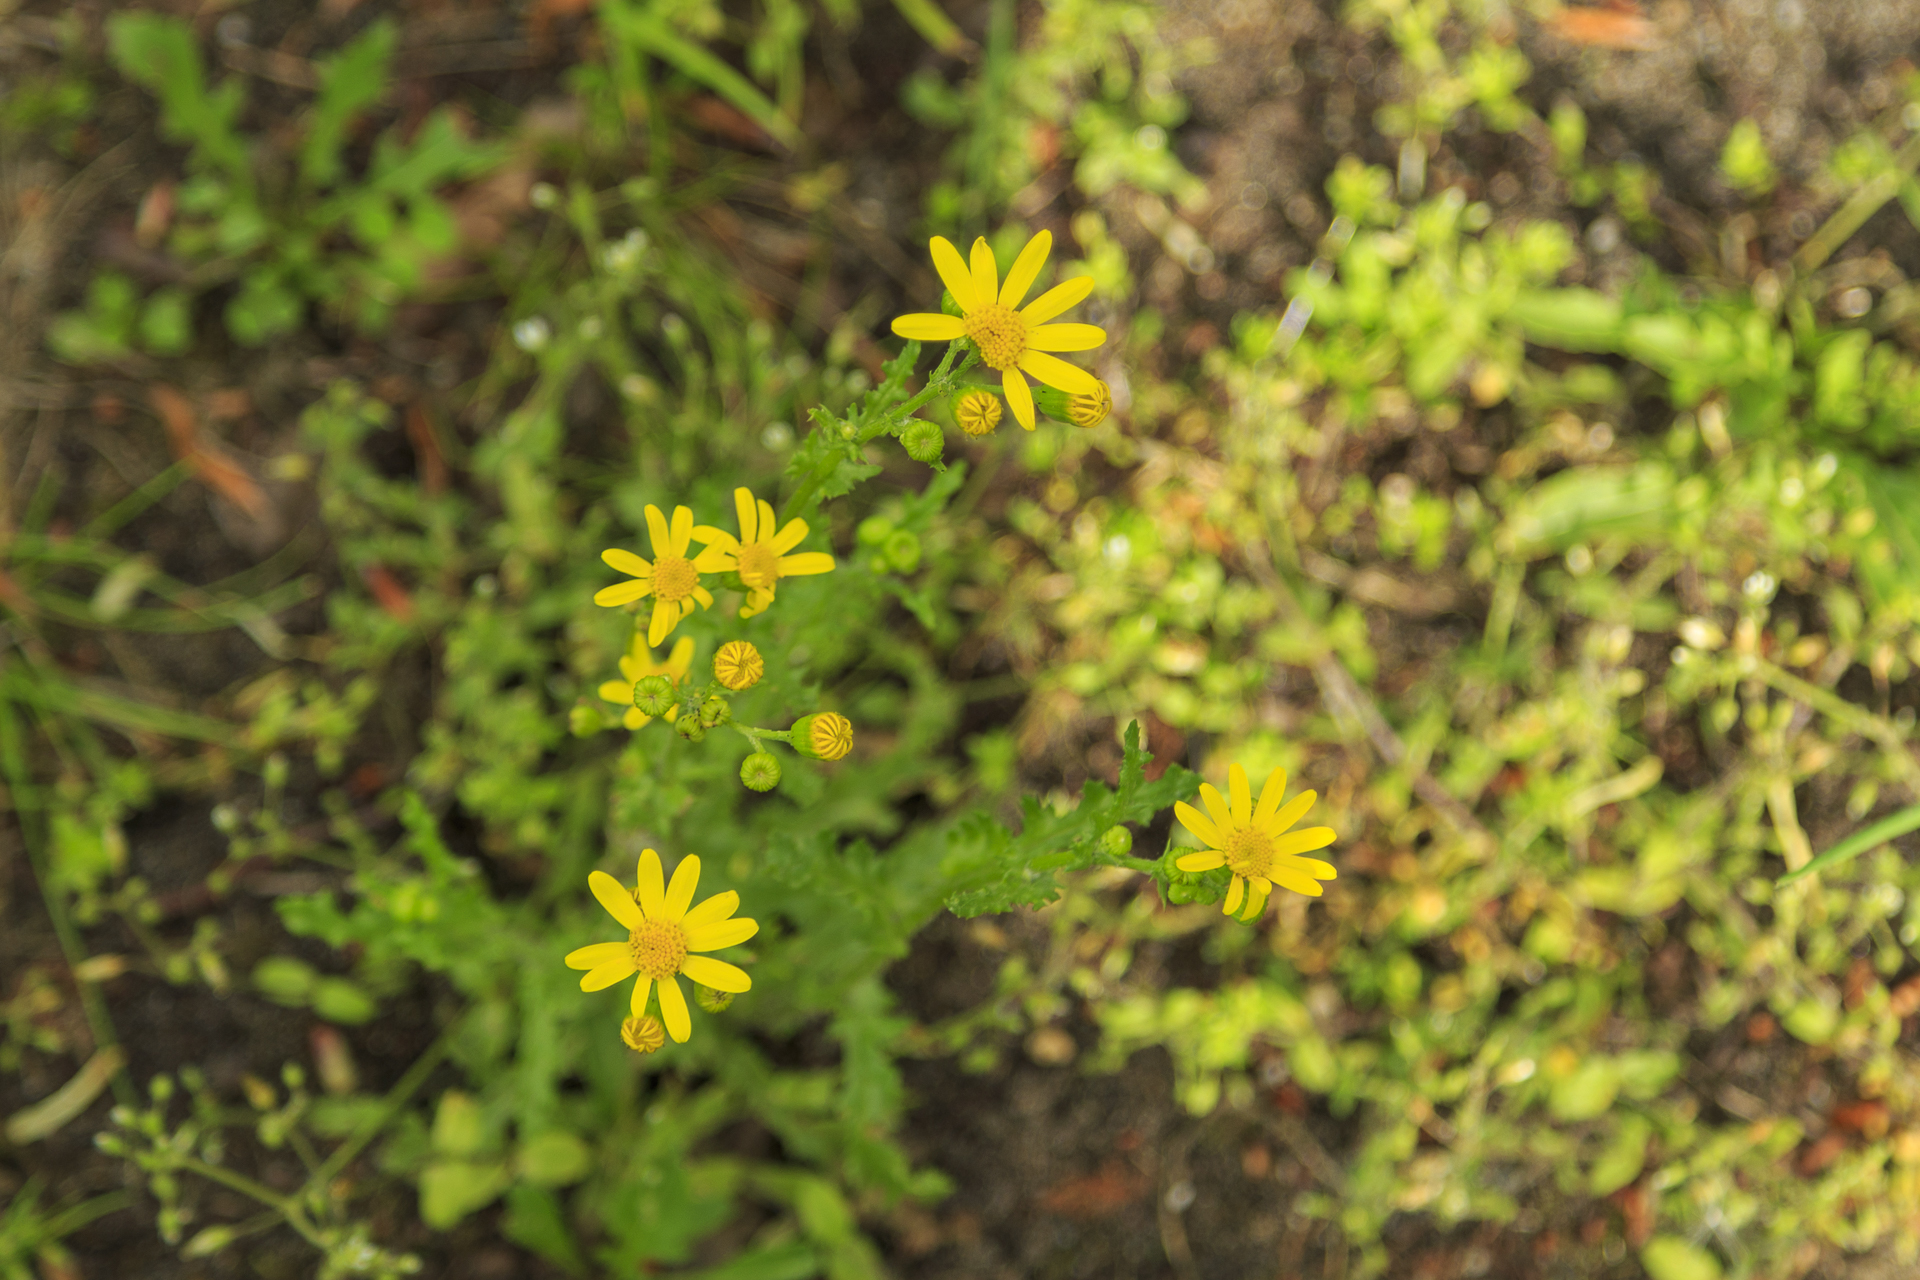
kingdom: Plantae
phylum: Tracheophyta
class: Magnoliopsida
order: Asterales
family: Asteraceae
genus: Jacobaea
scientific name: Jacobaea vulgaris
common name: Stinking willie
